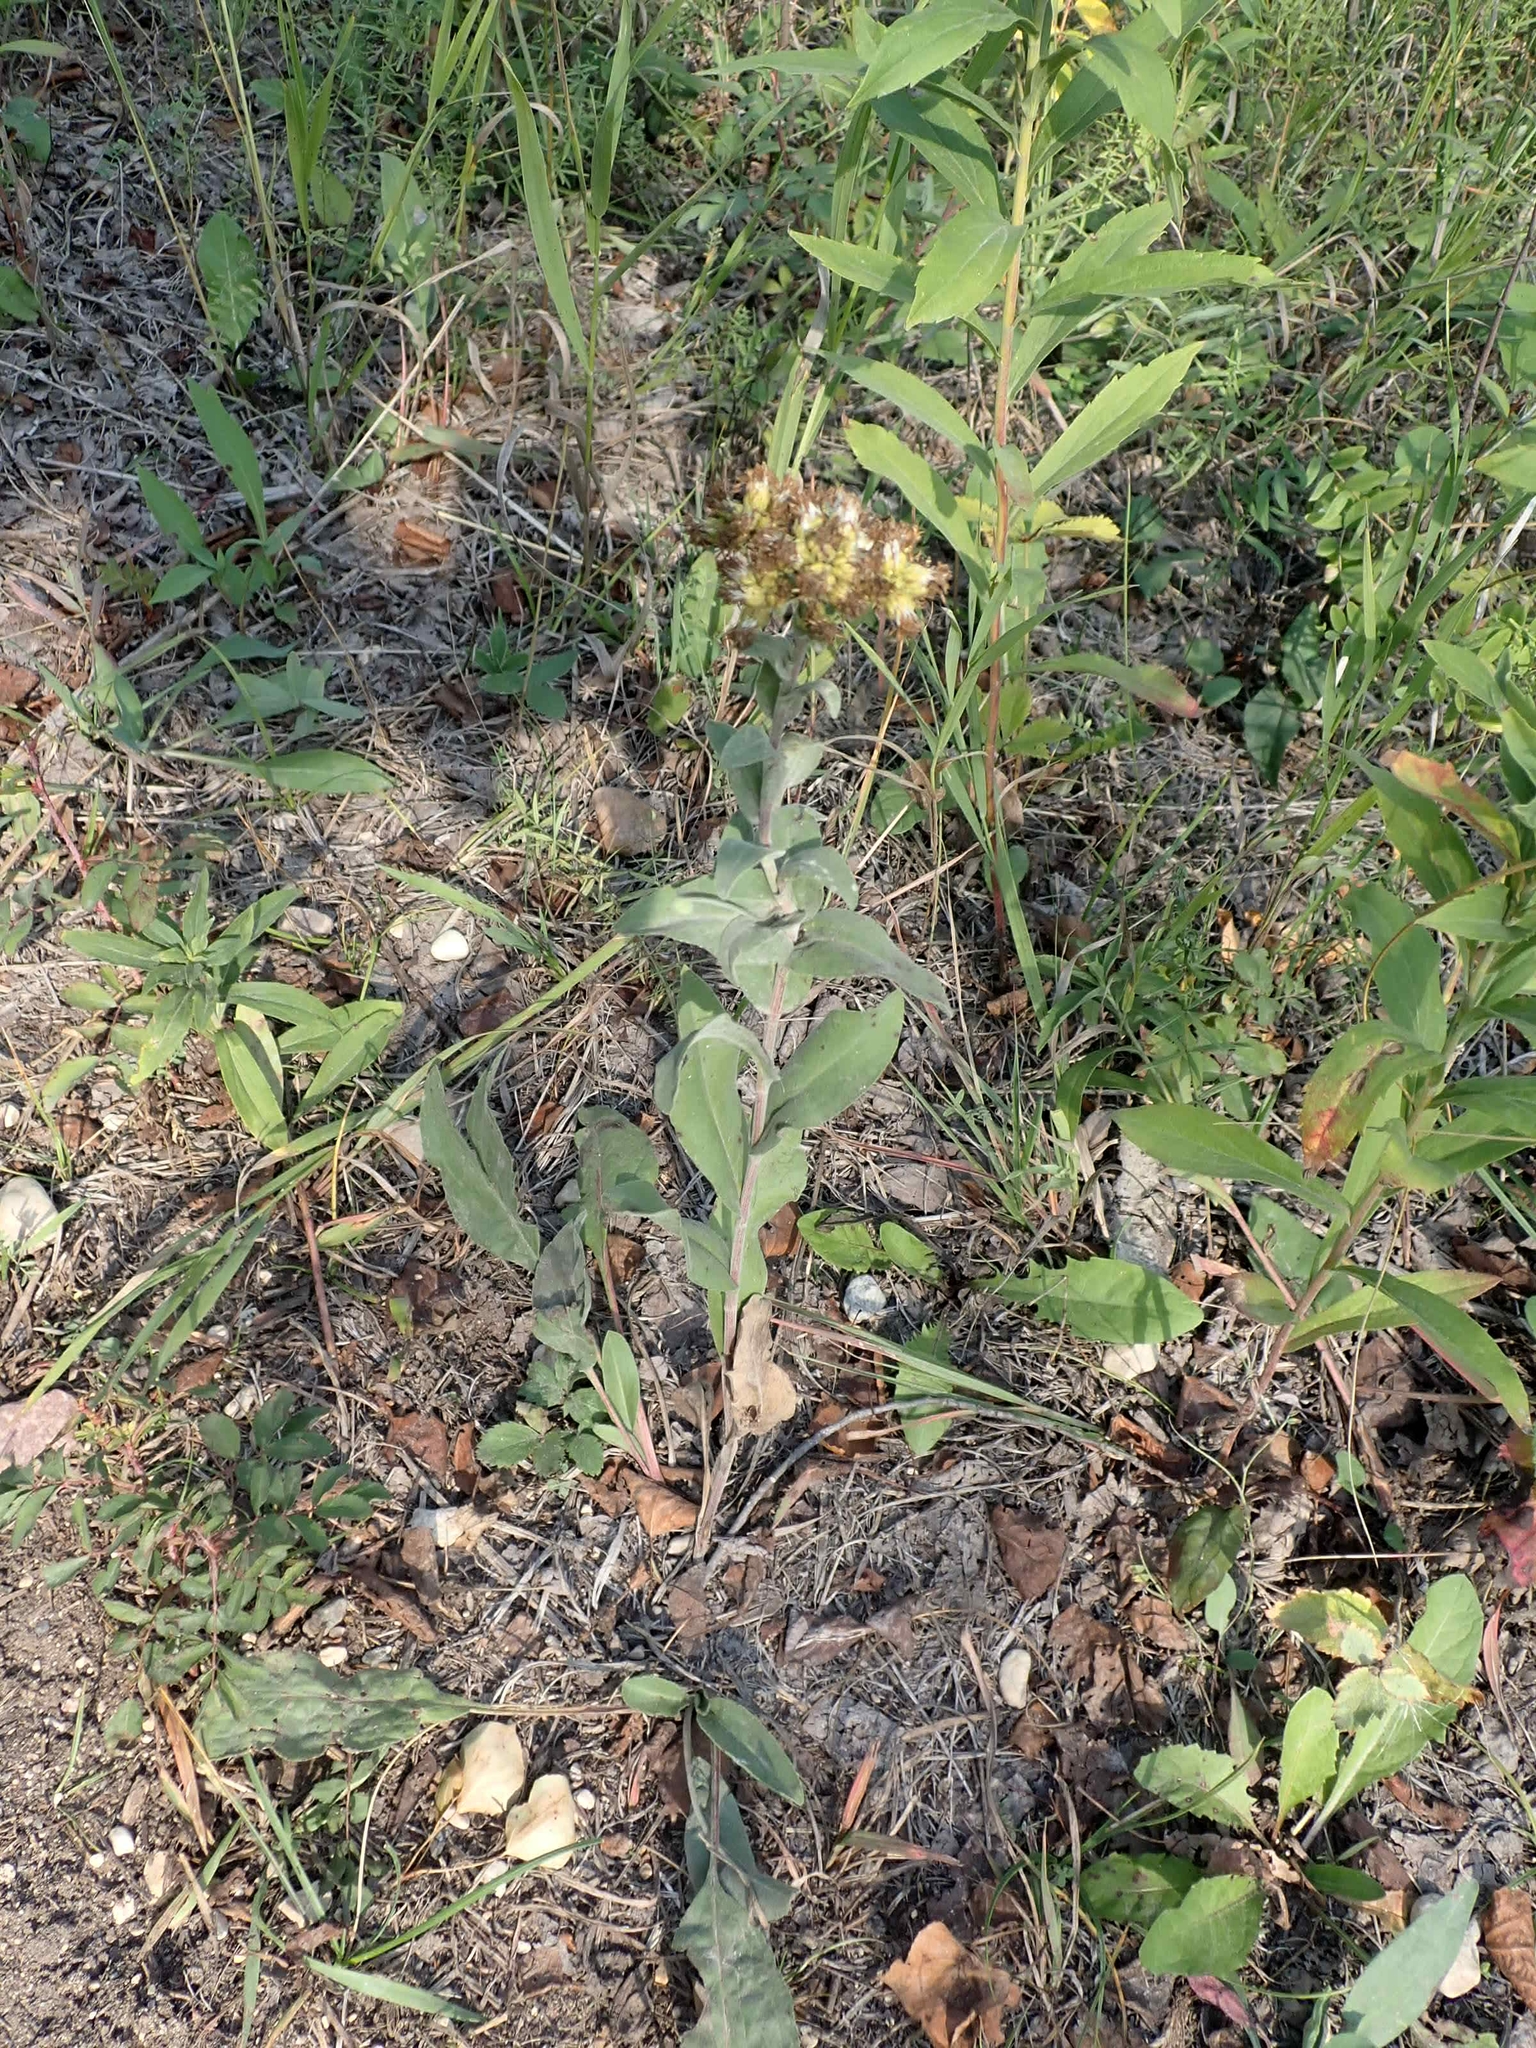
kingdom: Plantae
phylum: Tracheophyta
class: Magnoliopsida
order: Asterales
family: Asteraceae
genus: Solidago
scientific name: Solidago rigida
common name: Rigid goldenrod
